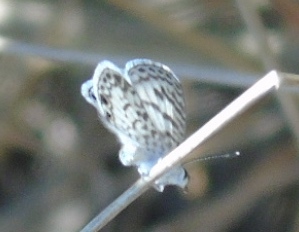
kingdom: Animalia
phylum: Arthropoda
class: Insecta
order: Lepidoptera
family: Lycaenidae
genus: Leptotes
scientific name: Leptotes cassius
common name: Cassius blue
